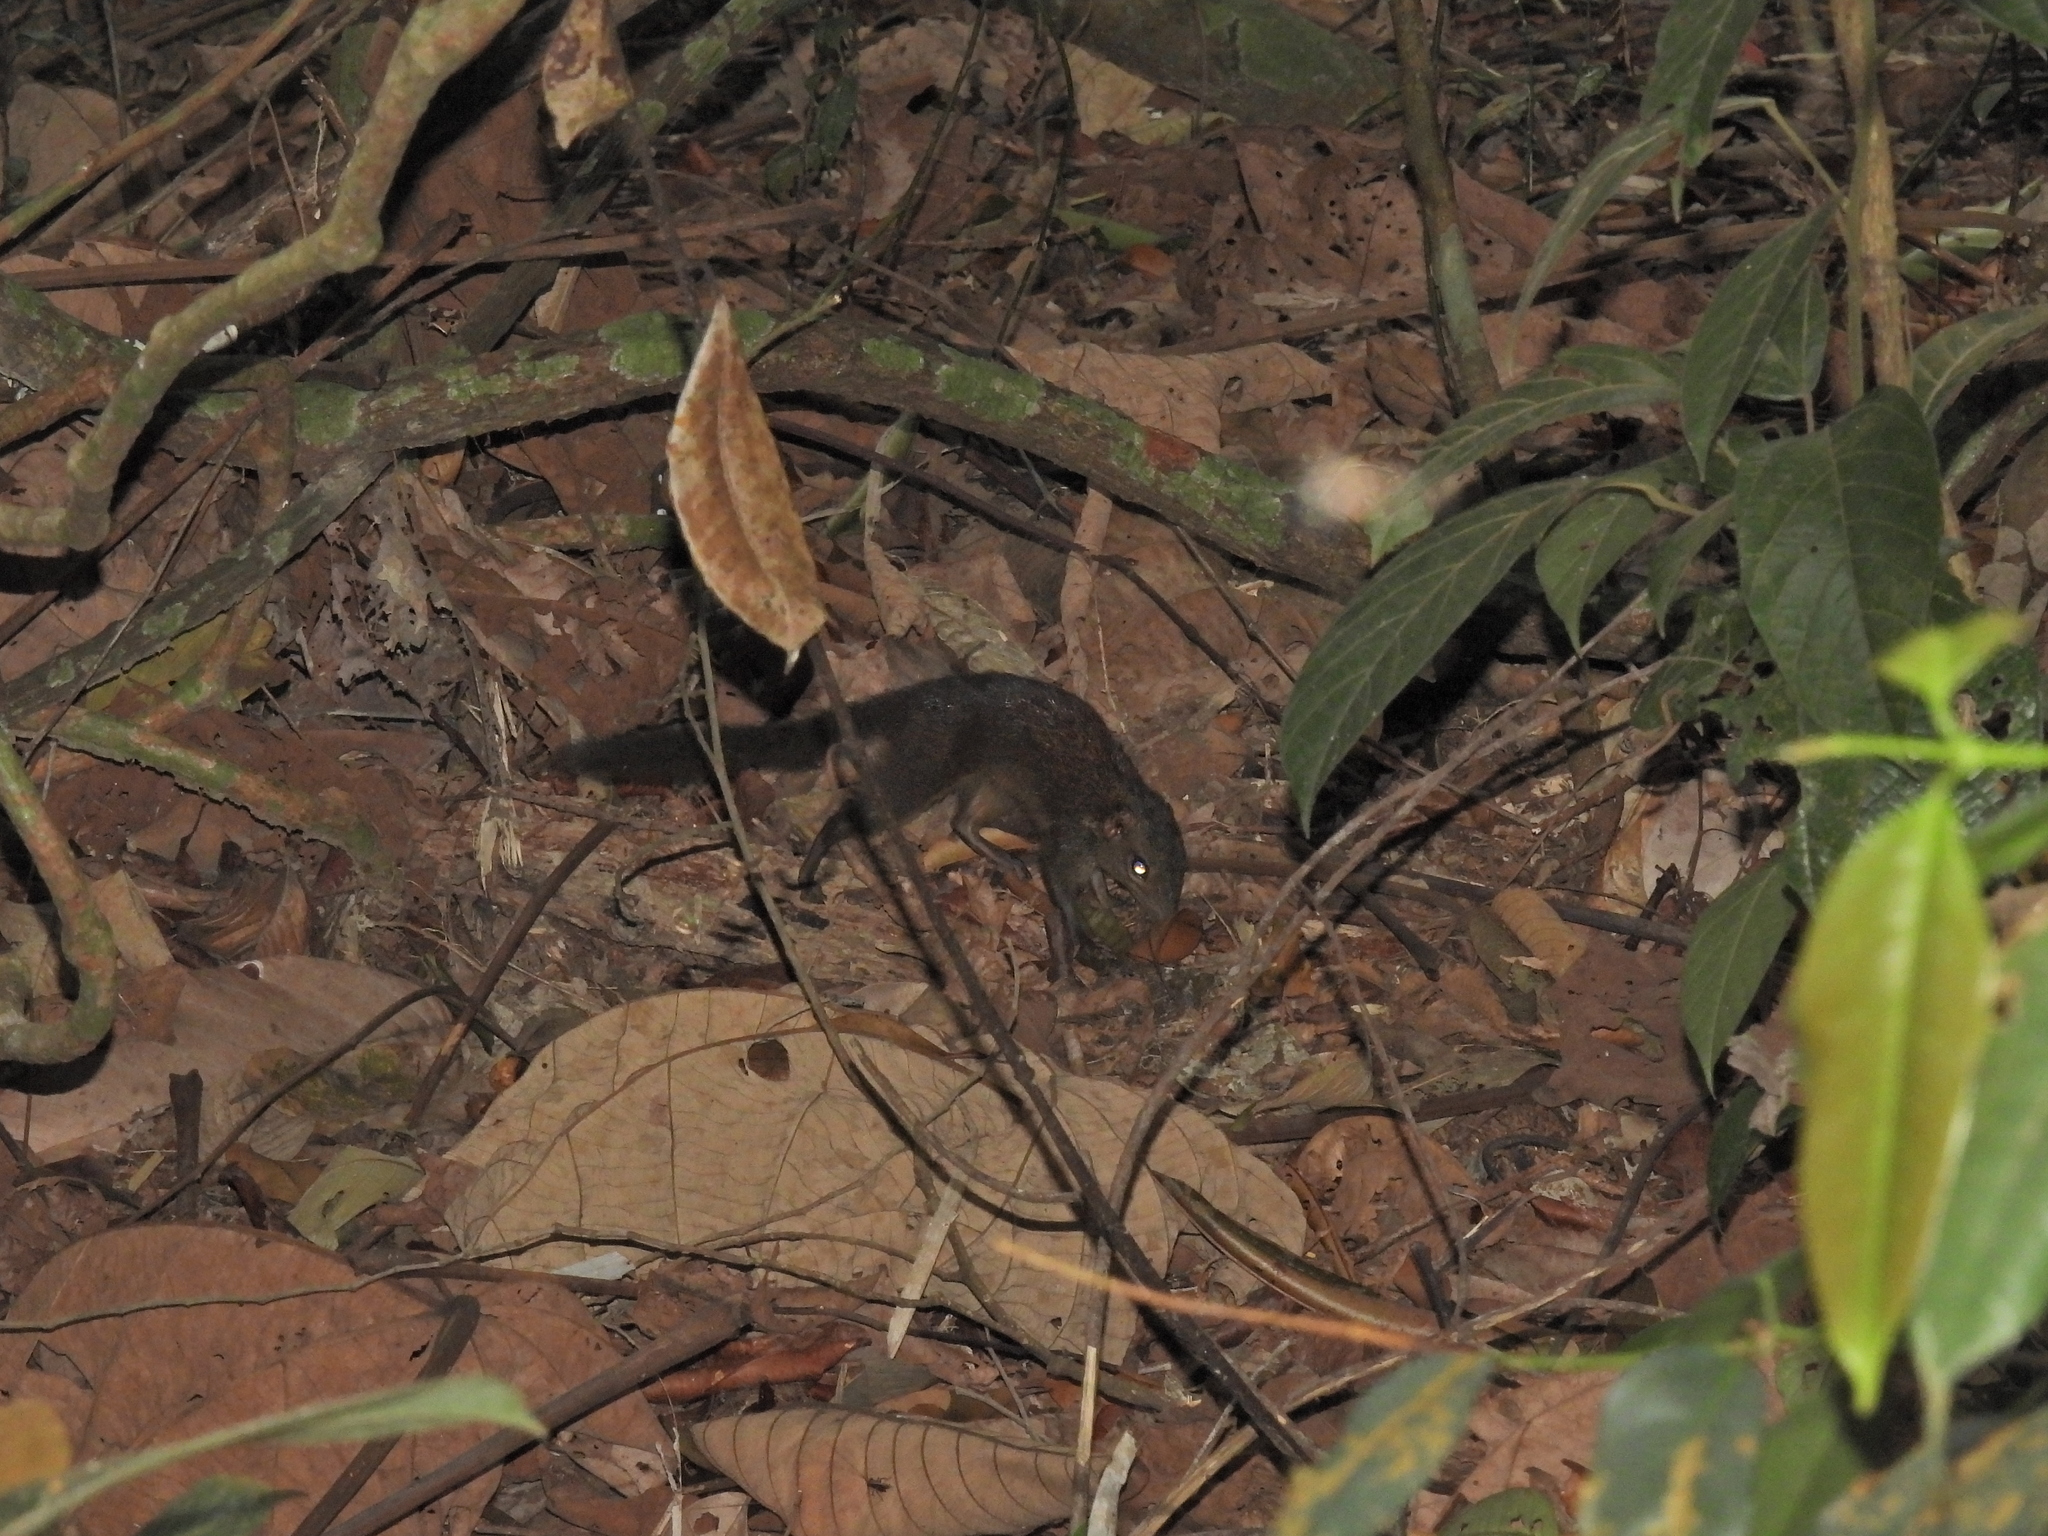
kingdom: Animalia
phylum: Chordata
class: Mammalia
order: Scandentia
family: Tupaiidae
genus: Tupaia
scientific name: Tupaia glis
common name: Common treeshrew
